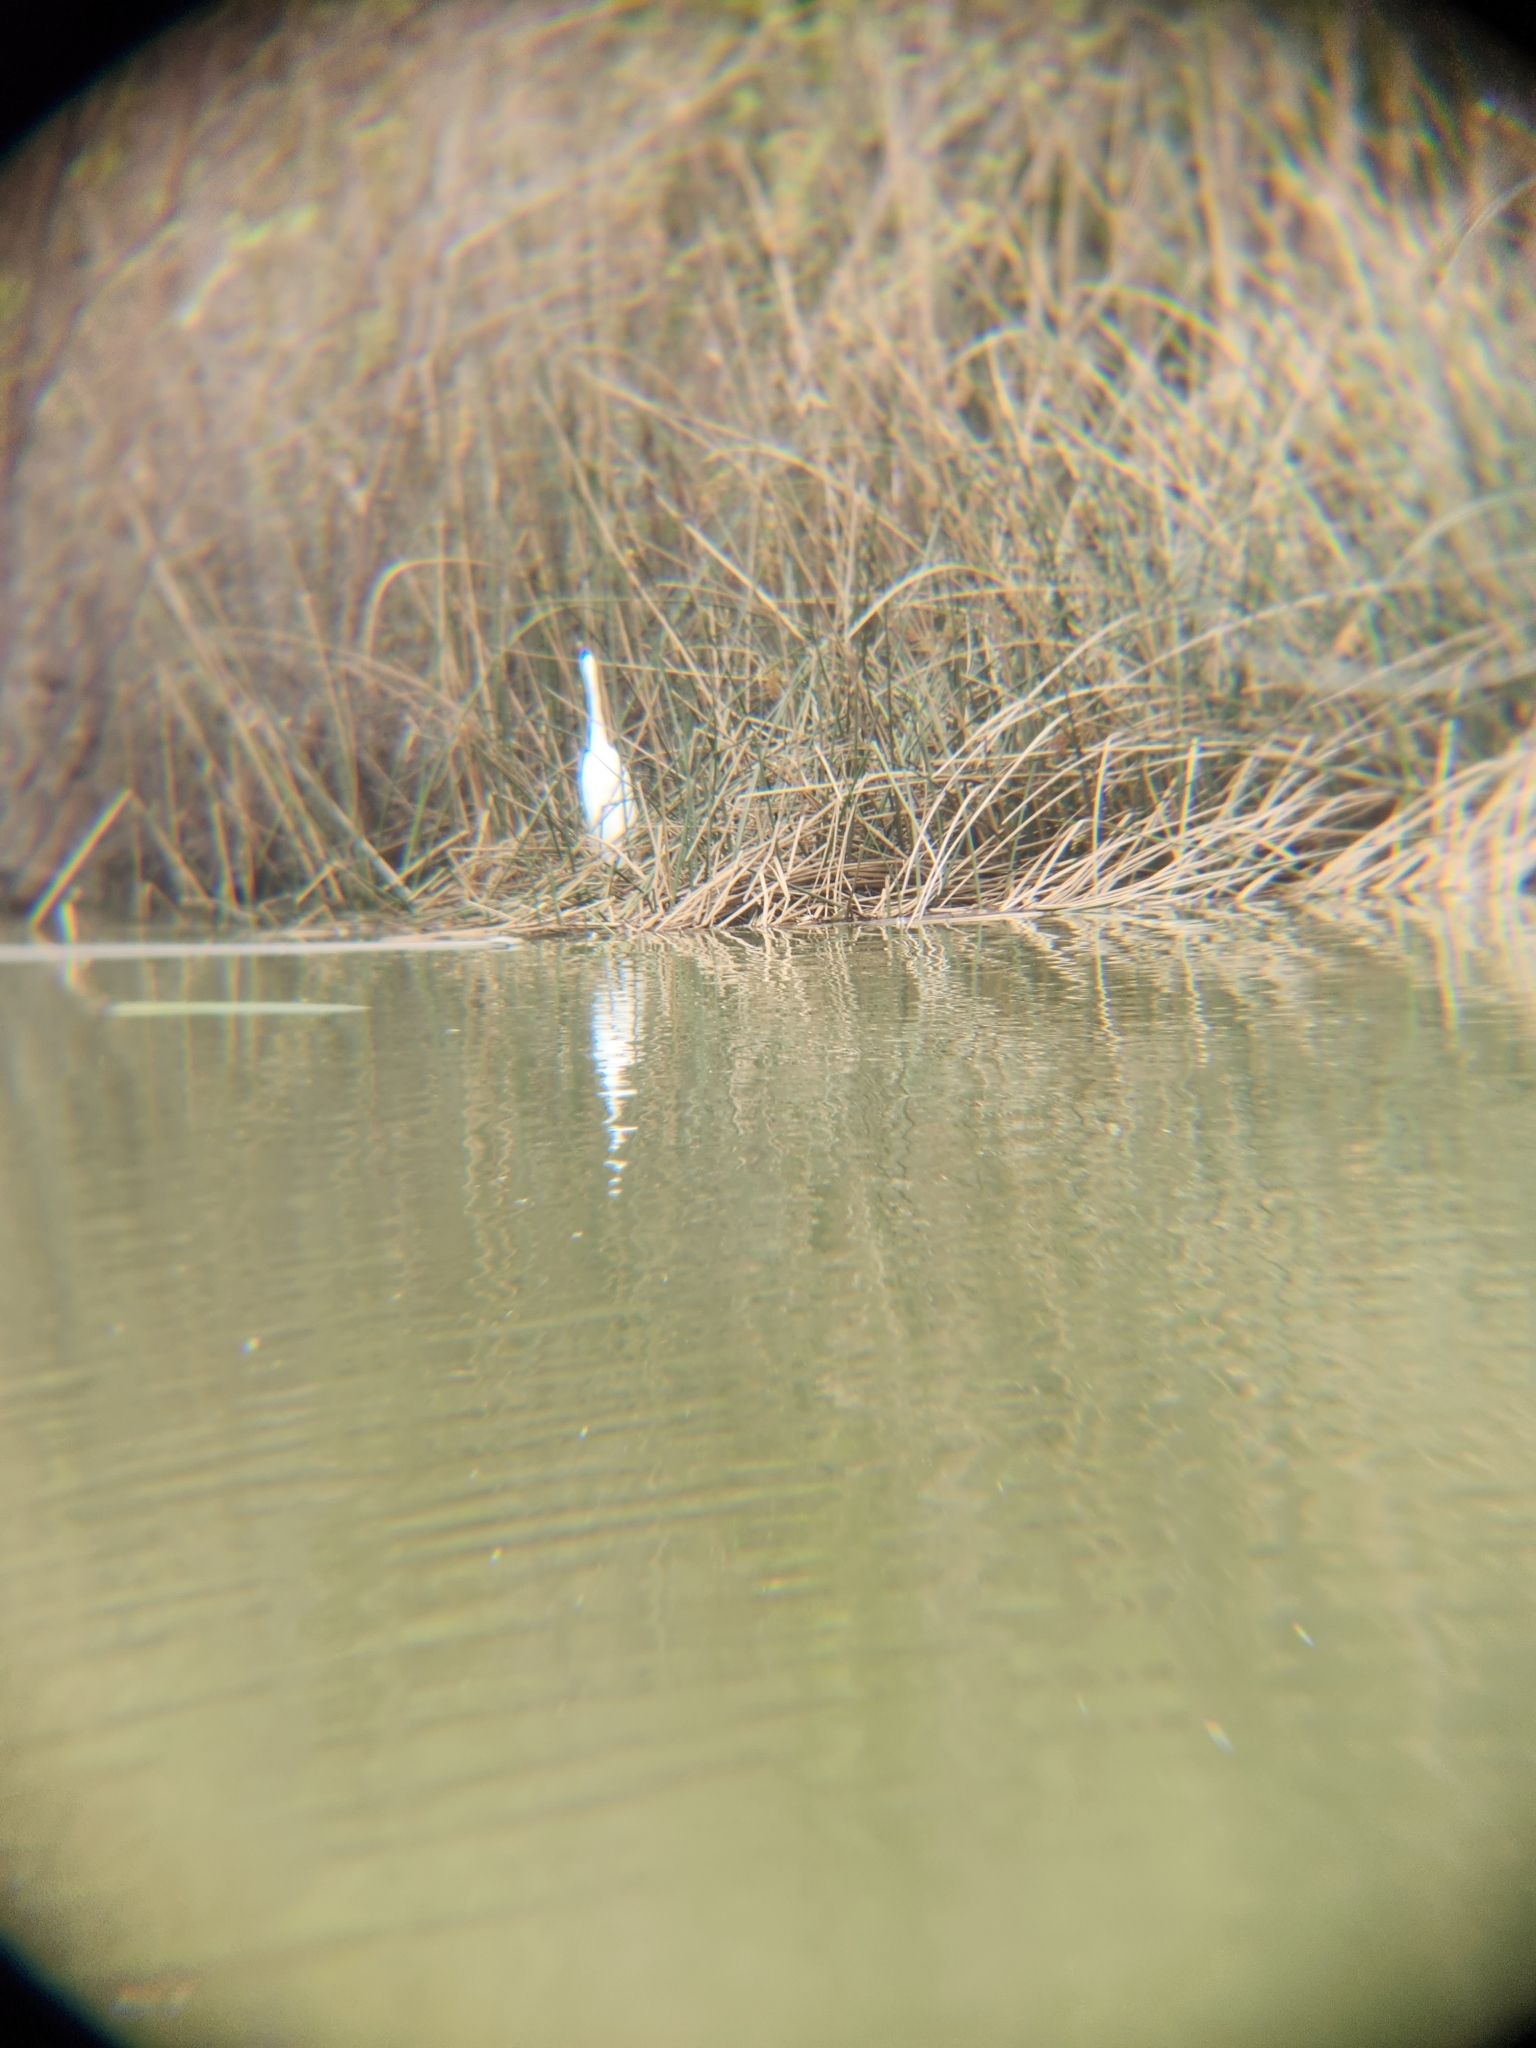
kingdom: Animalia
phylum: Chordata
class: Aves
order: Pelecaniformes
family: Ardeidae
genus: Ardea
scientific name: Ardea alba
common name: Great egret
